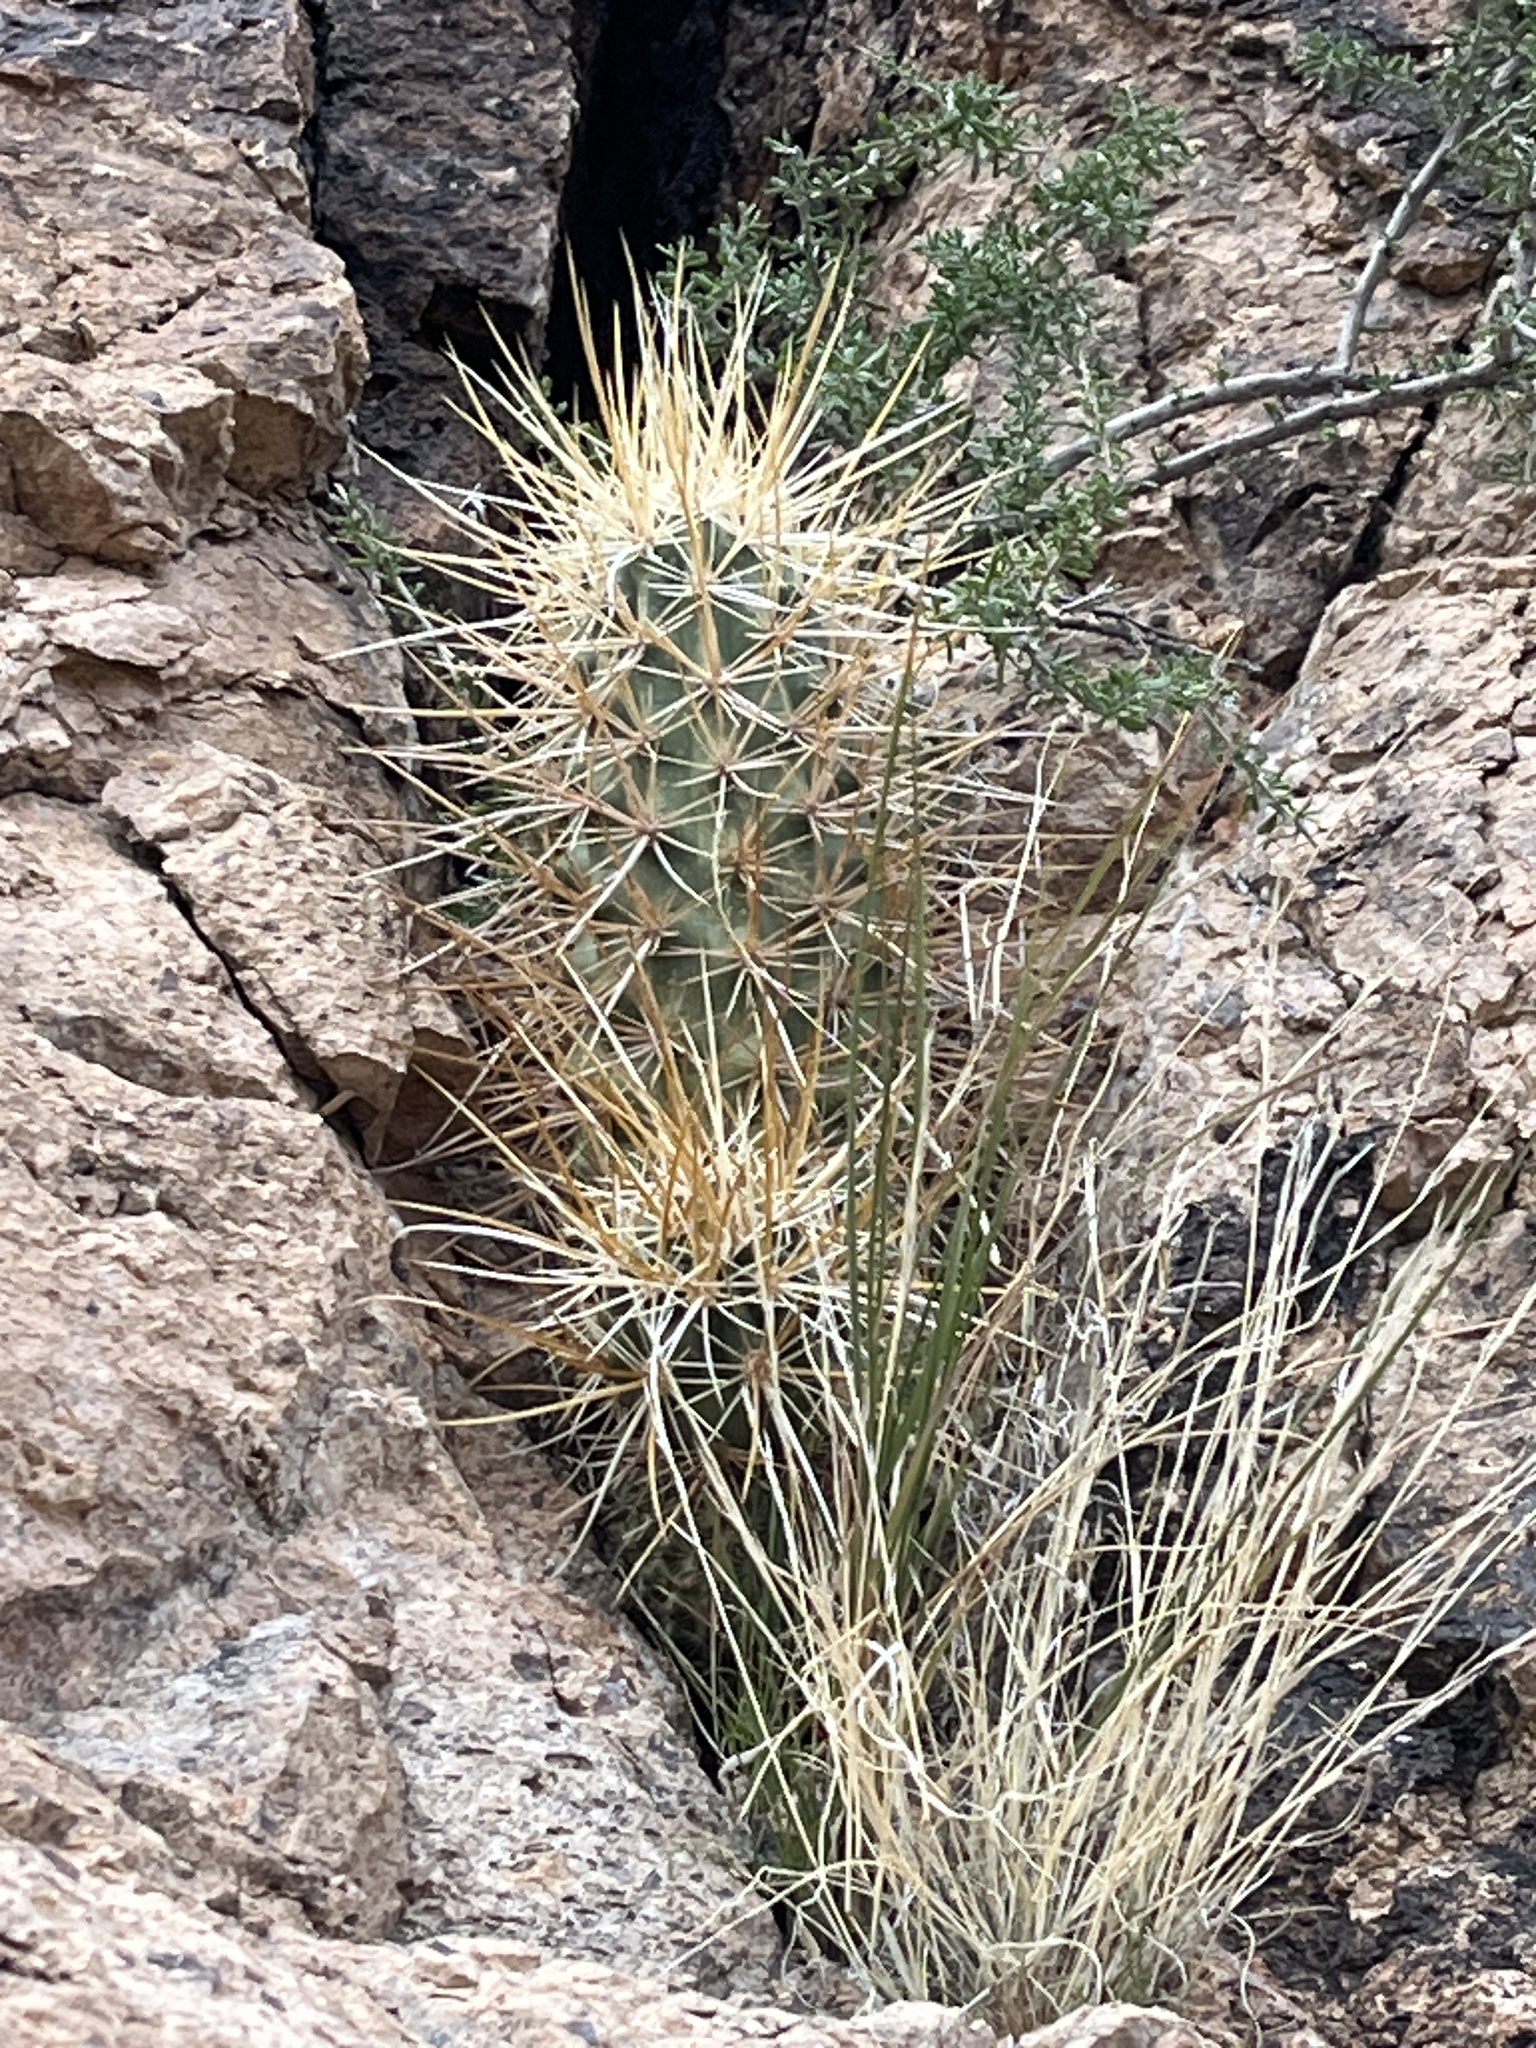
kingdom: Plantae
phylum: Tracheophyta
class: Magnoliopsida
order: Caryophyllales
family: Cactaceae
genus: Echinocereus
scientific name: Echinocereus engelmannii
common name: Engelmann's hedgehog cactus
